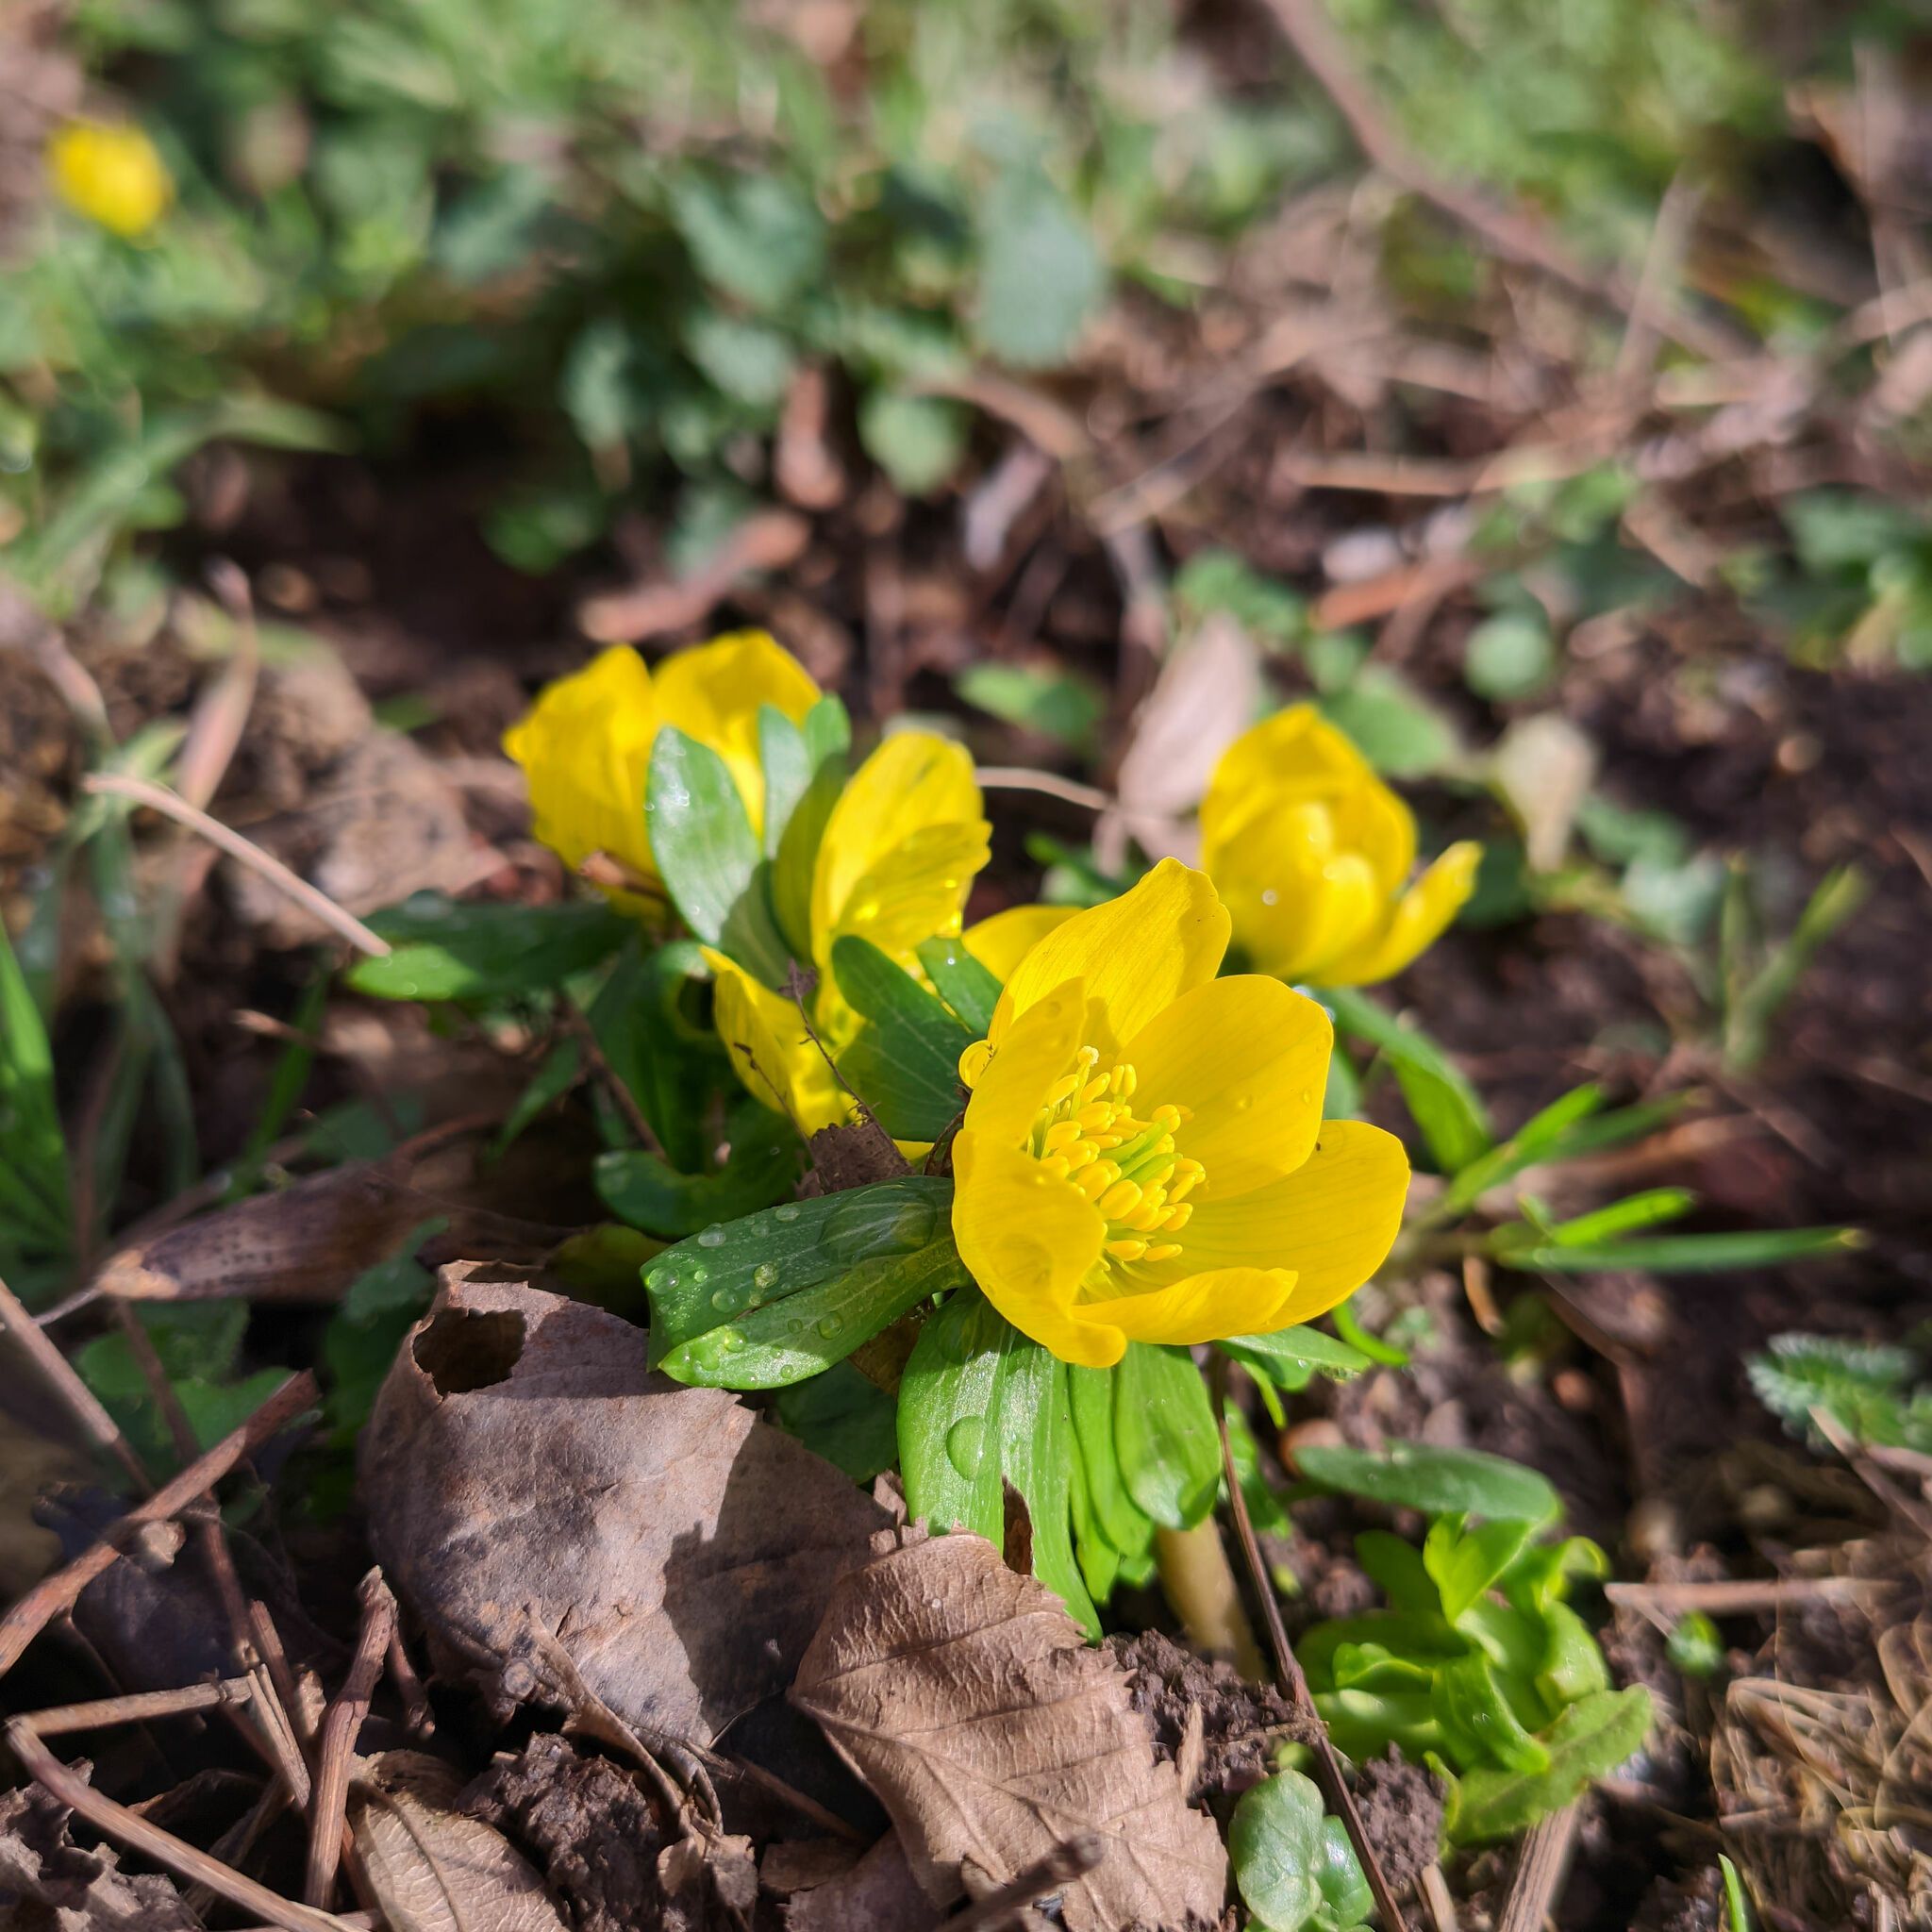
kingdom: Plantae
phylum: Tracheophyta
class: Magnoliopsida
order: Ranunculales
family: Ranunculaceae
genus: Eranthis
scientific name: Eranthis hyemalis
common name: Winter aconite
